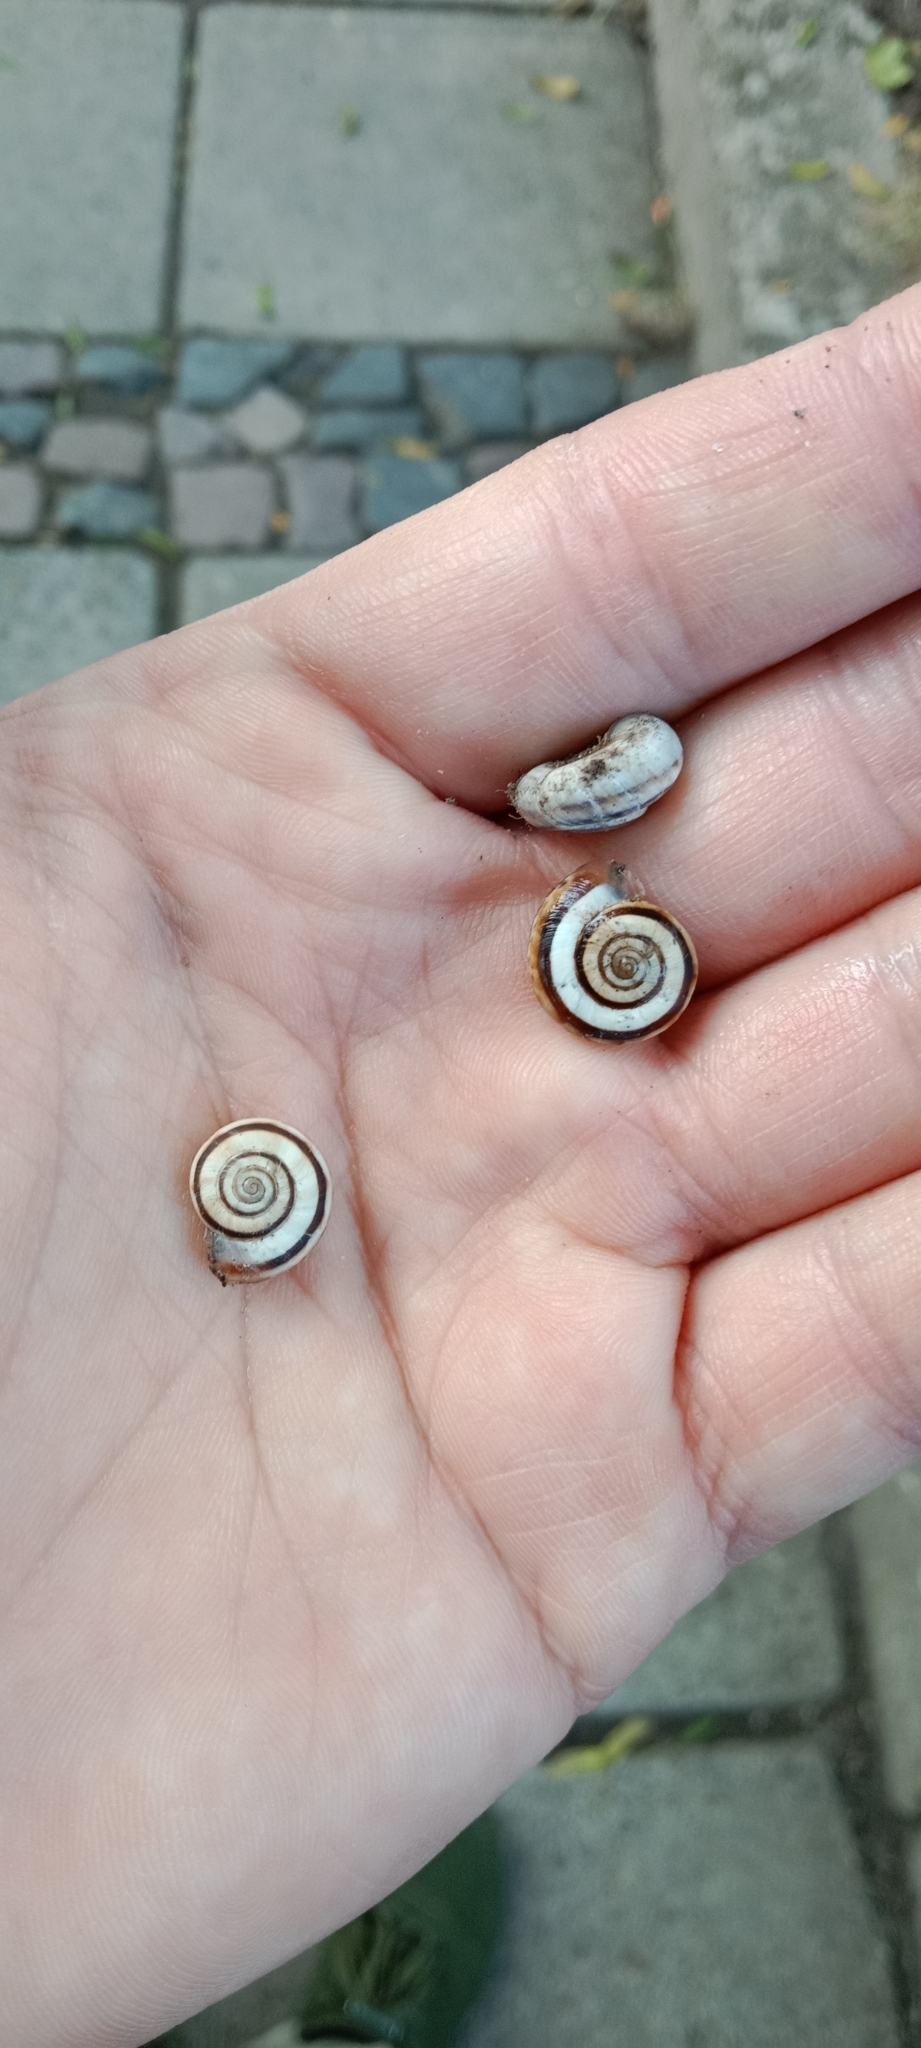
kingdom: Animalia
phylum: Mollusca
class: Gastropoda
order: Stylommatophora
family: Geomitridae
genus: Xerolenta
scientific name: Xerolenta obvia
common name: White heath snail
